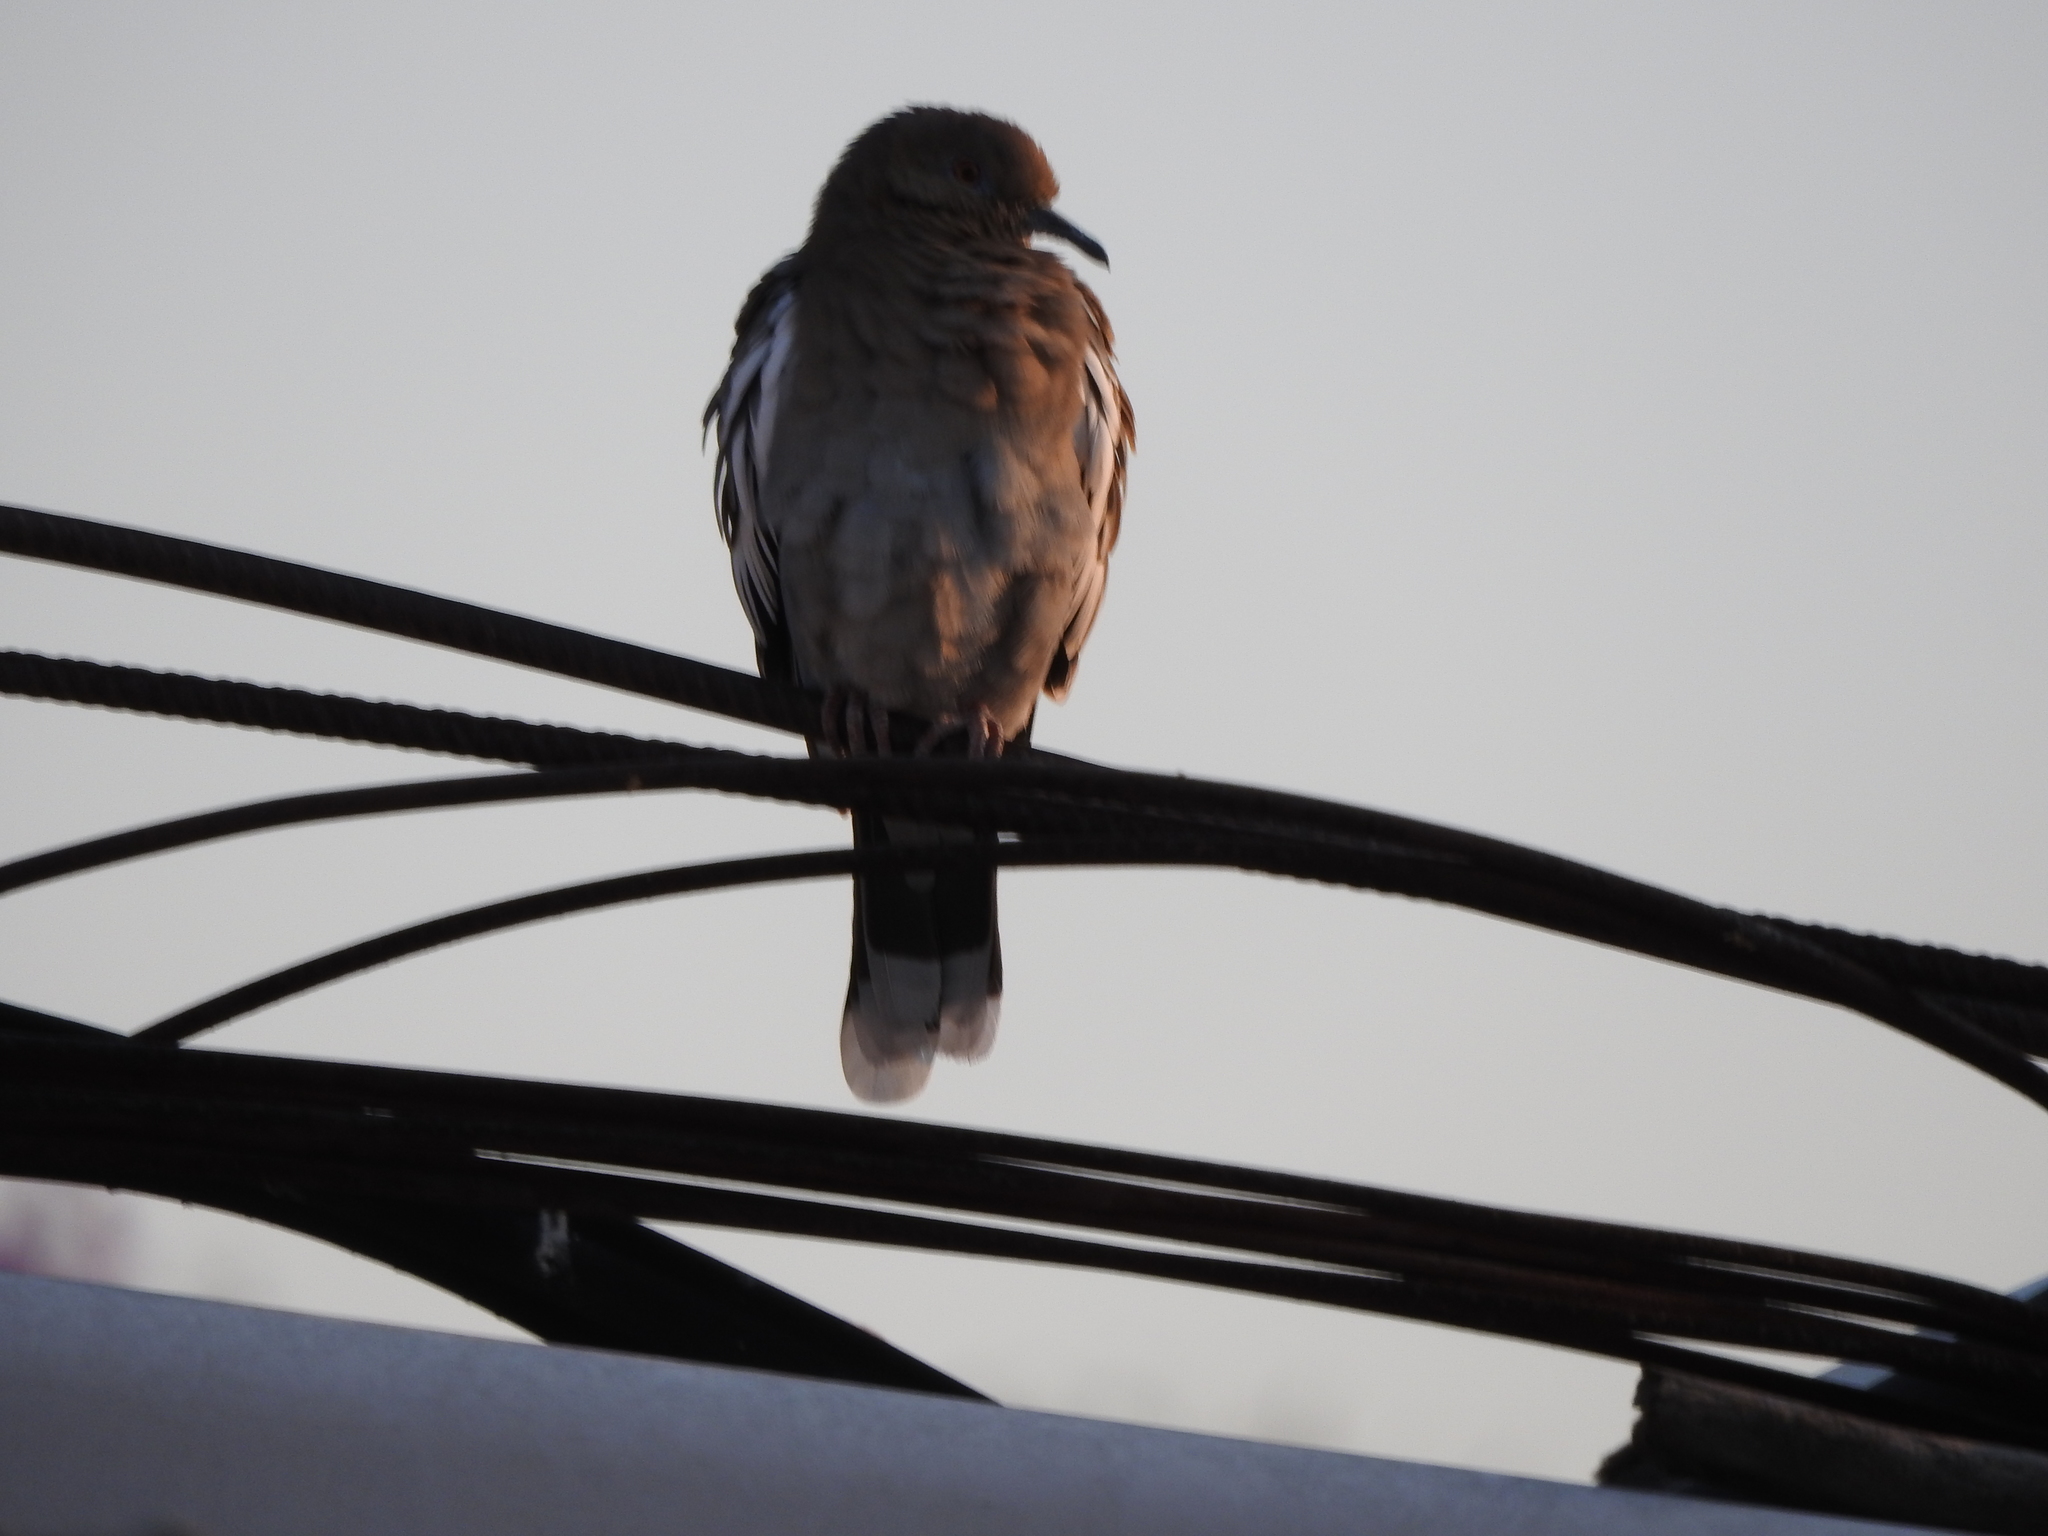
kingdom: Animalia
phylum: Chordata
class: Aves
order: Columbiformes
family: Columbidae
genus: Zenaida
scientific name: Zenaida asiatica
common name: White-winged dove
